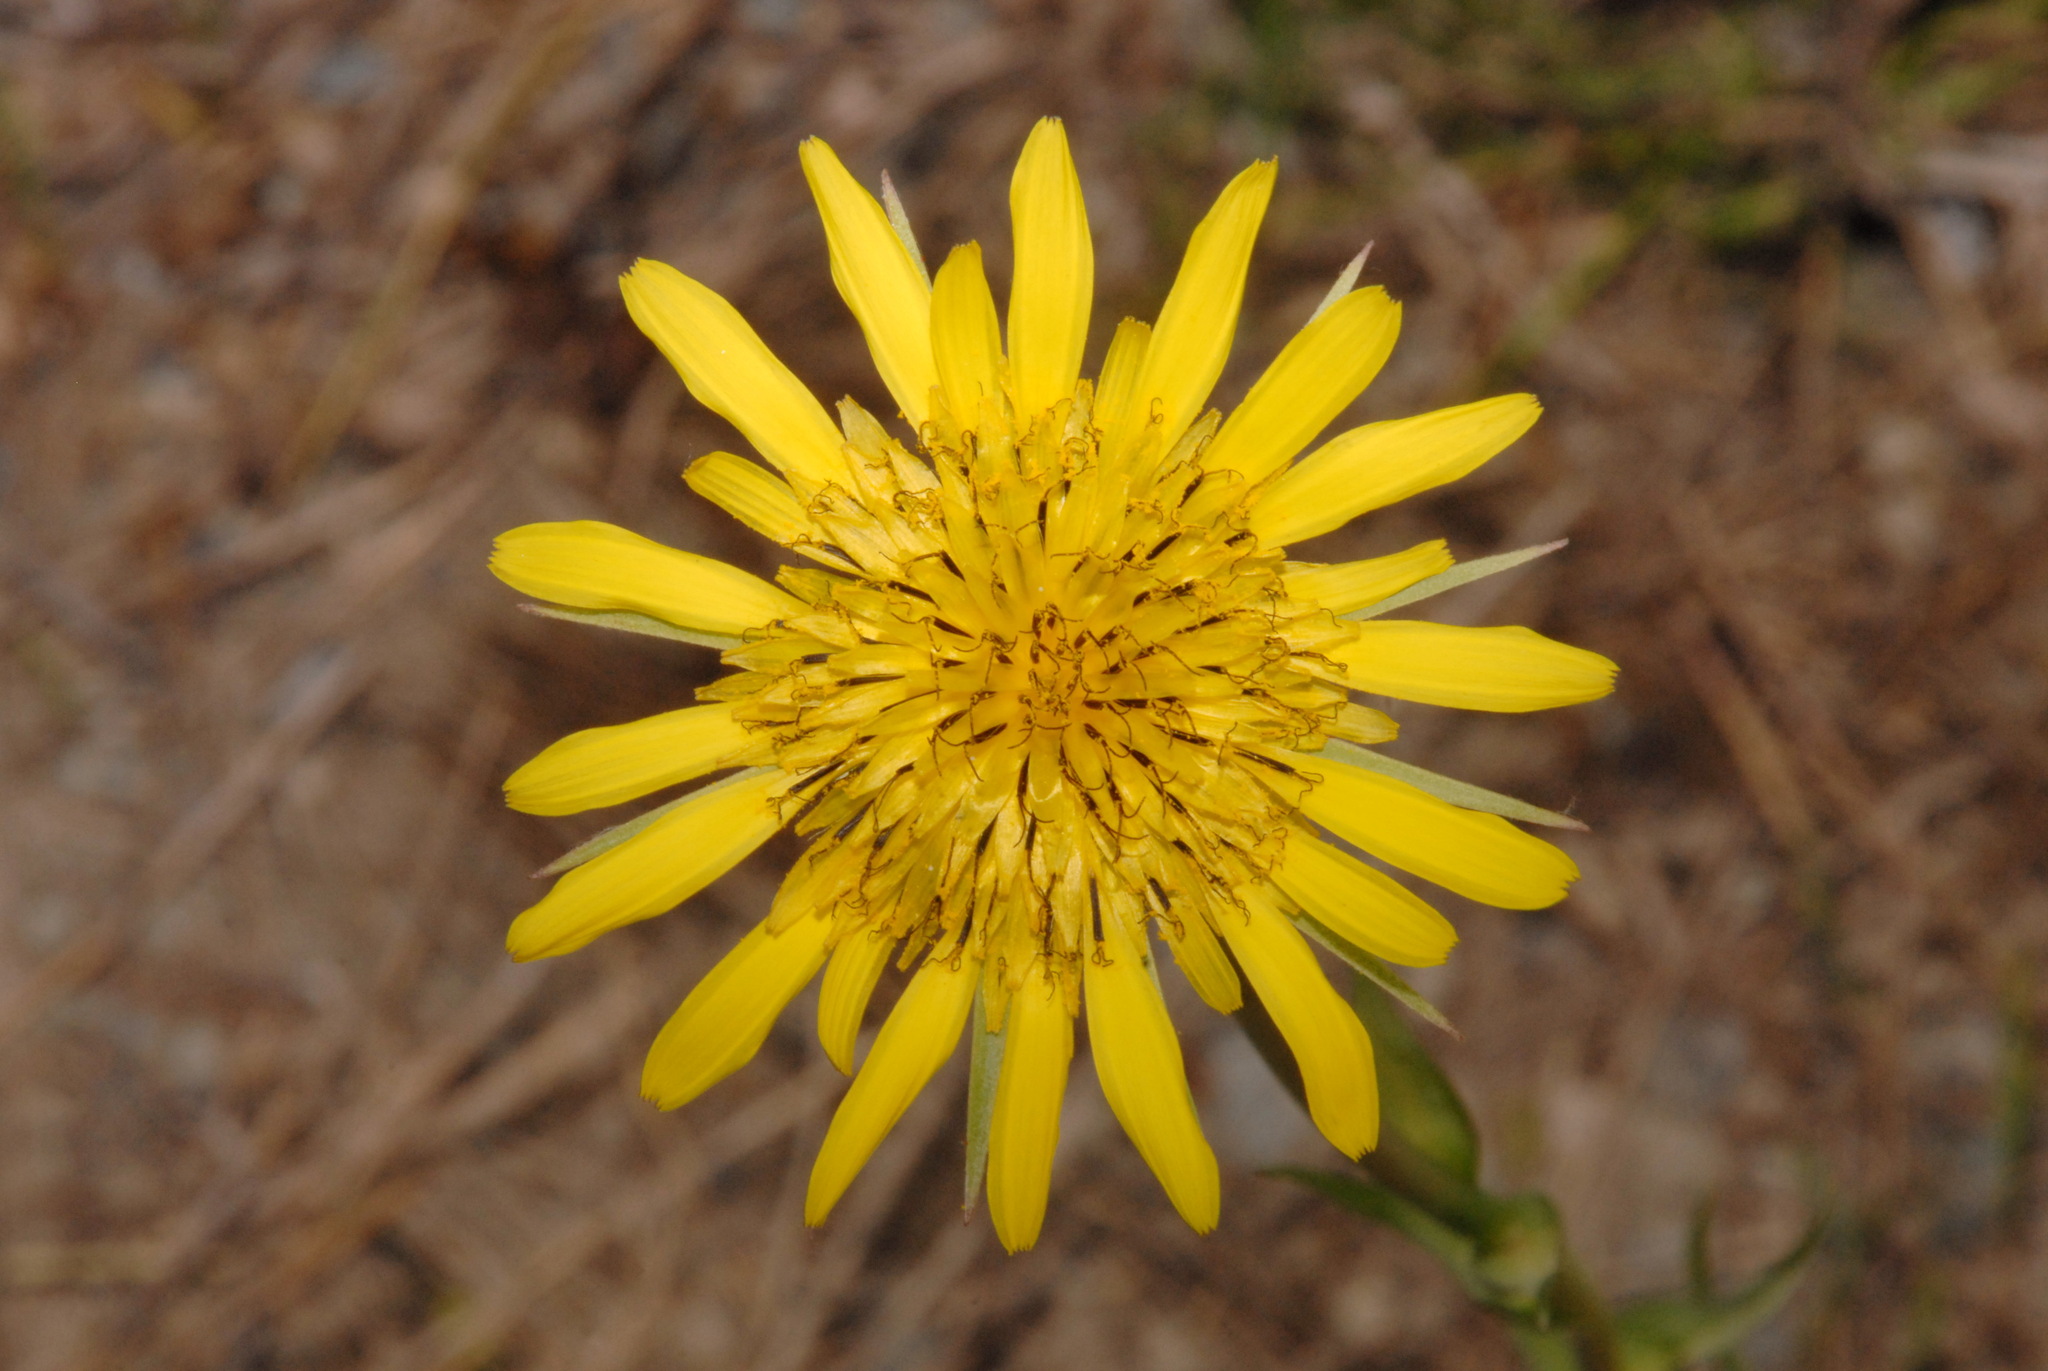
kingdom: Plantae
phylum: Tracheophyta
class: Magnoliopsida
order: Asterales
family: Asteraceae
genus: Tragopogon
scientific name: Tragopogon dubius
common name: Yellow salsify
